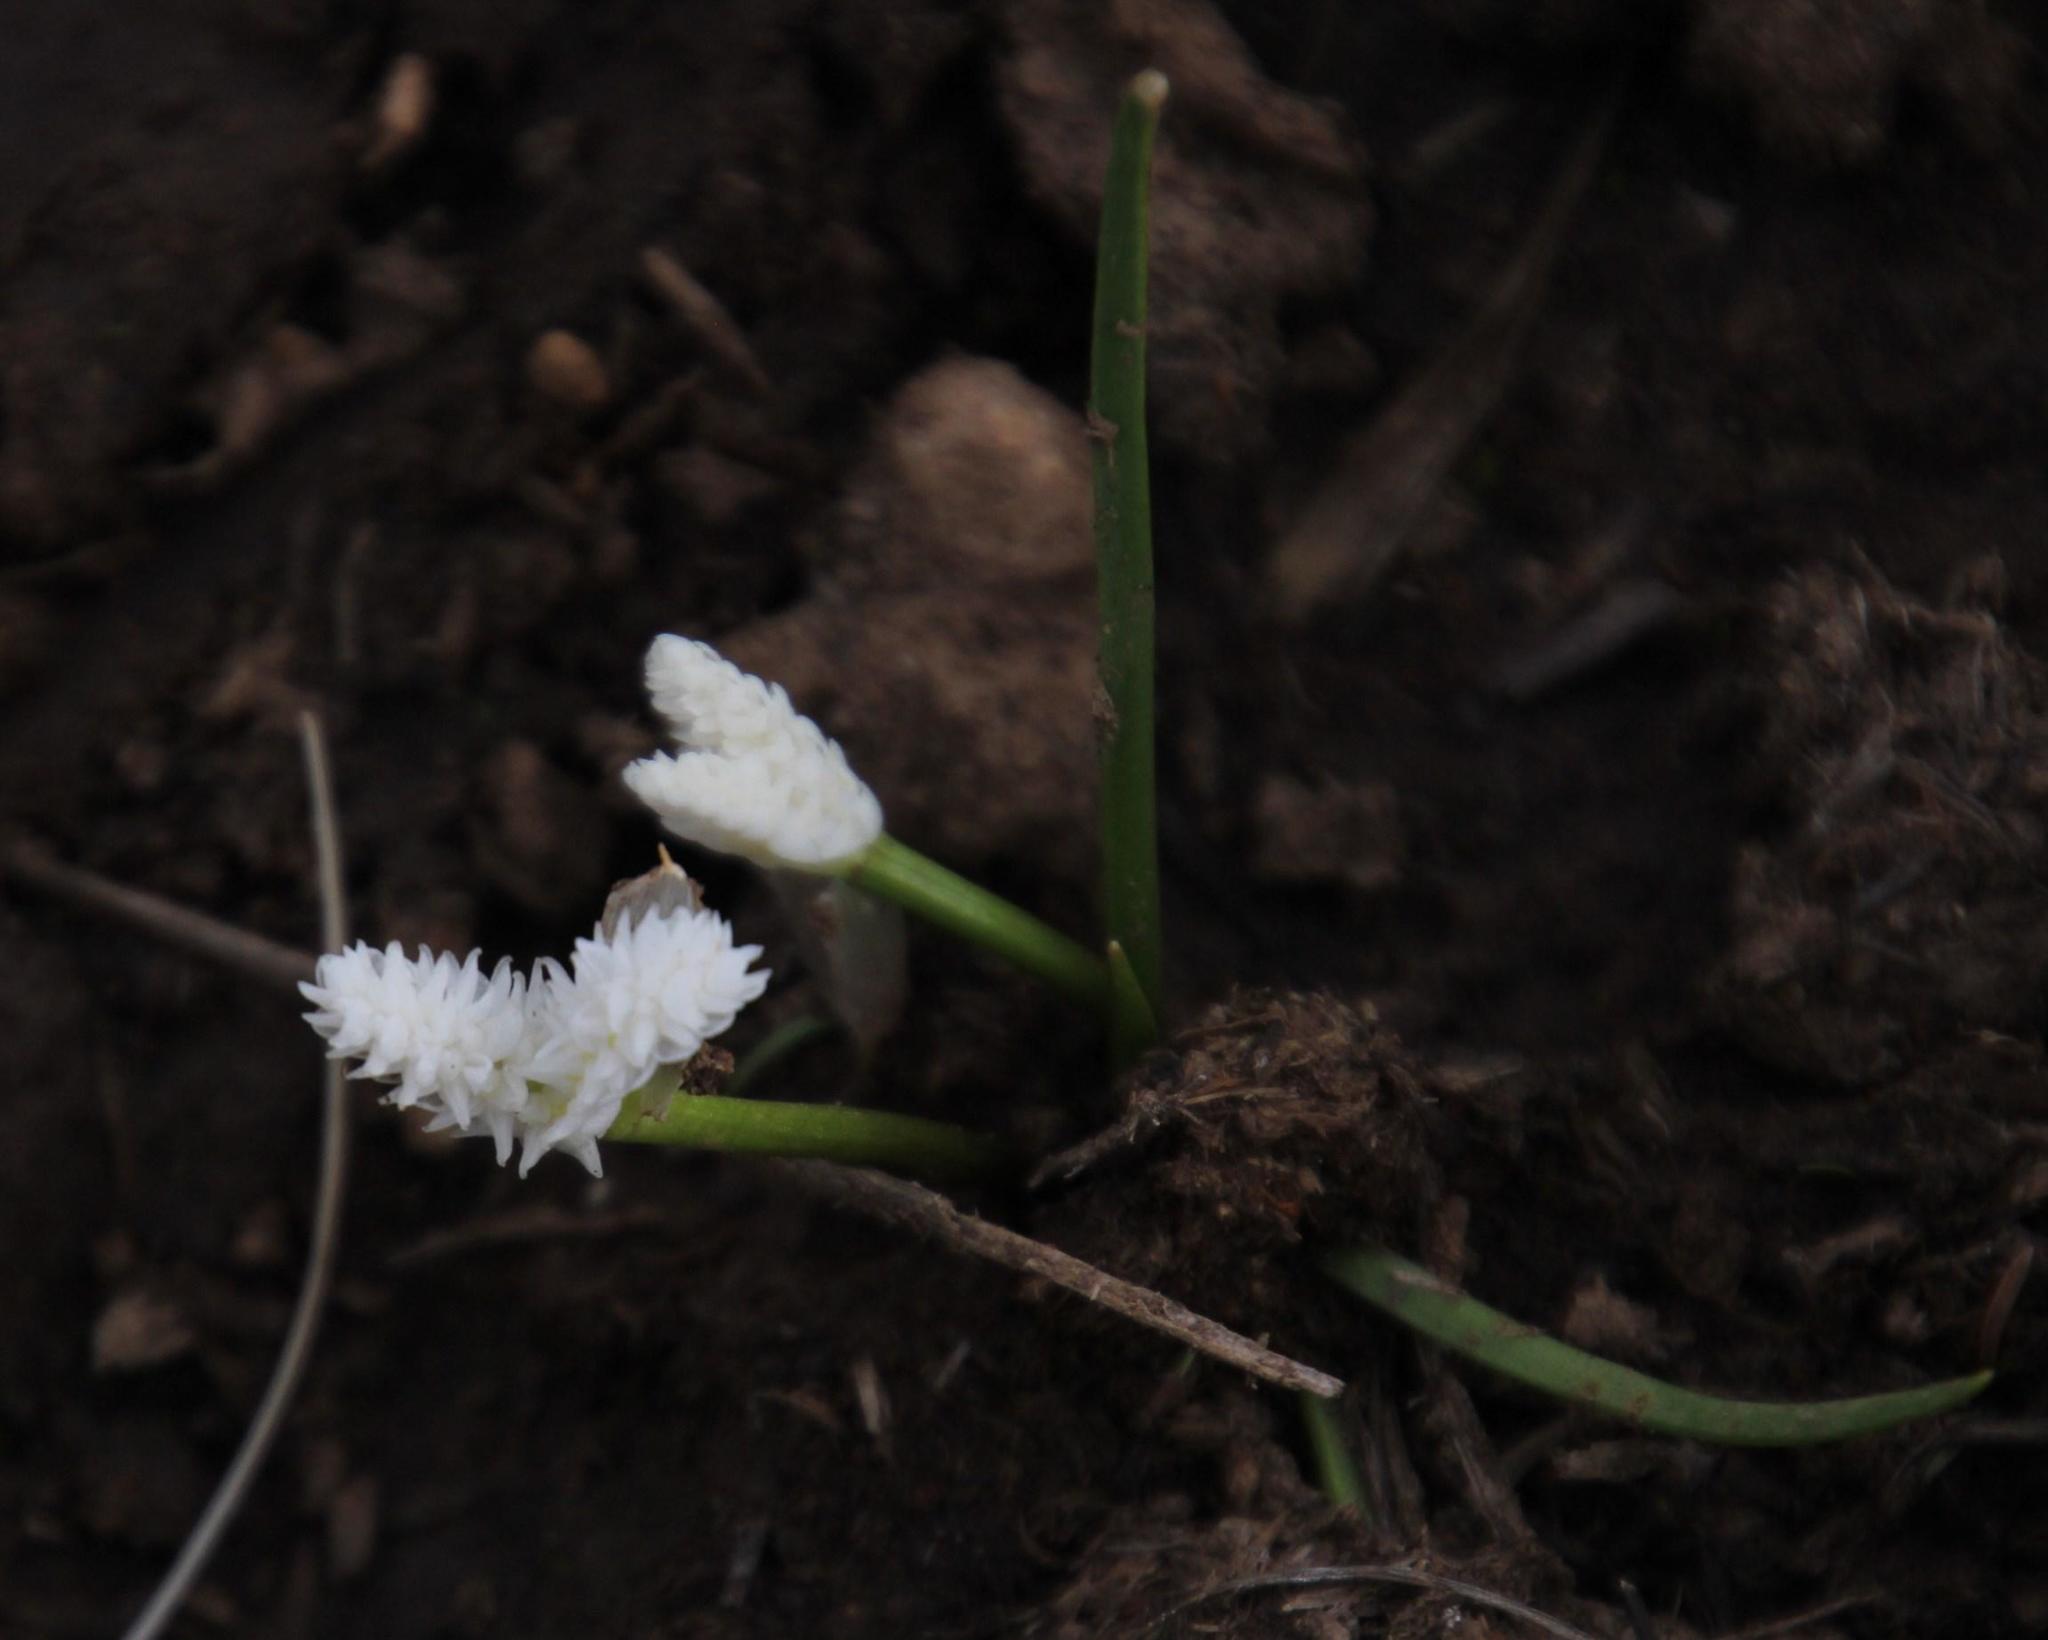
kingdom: Plantae
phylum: Tracheophyta
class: Liliopsida
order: Alismatales
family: Aponogetonaceae
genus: Aponogeton
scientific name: Aponogeton natalensis
